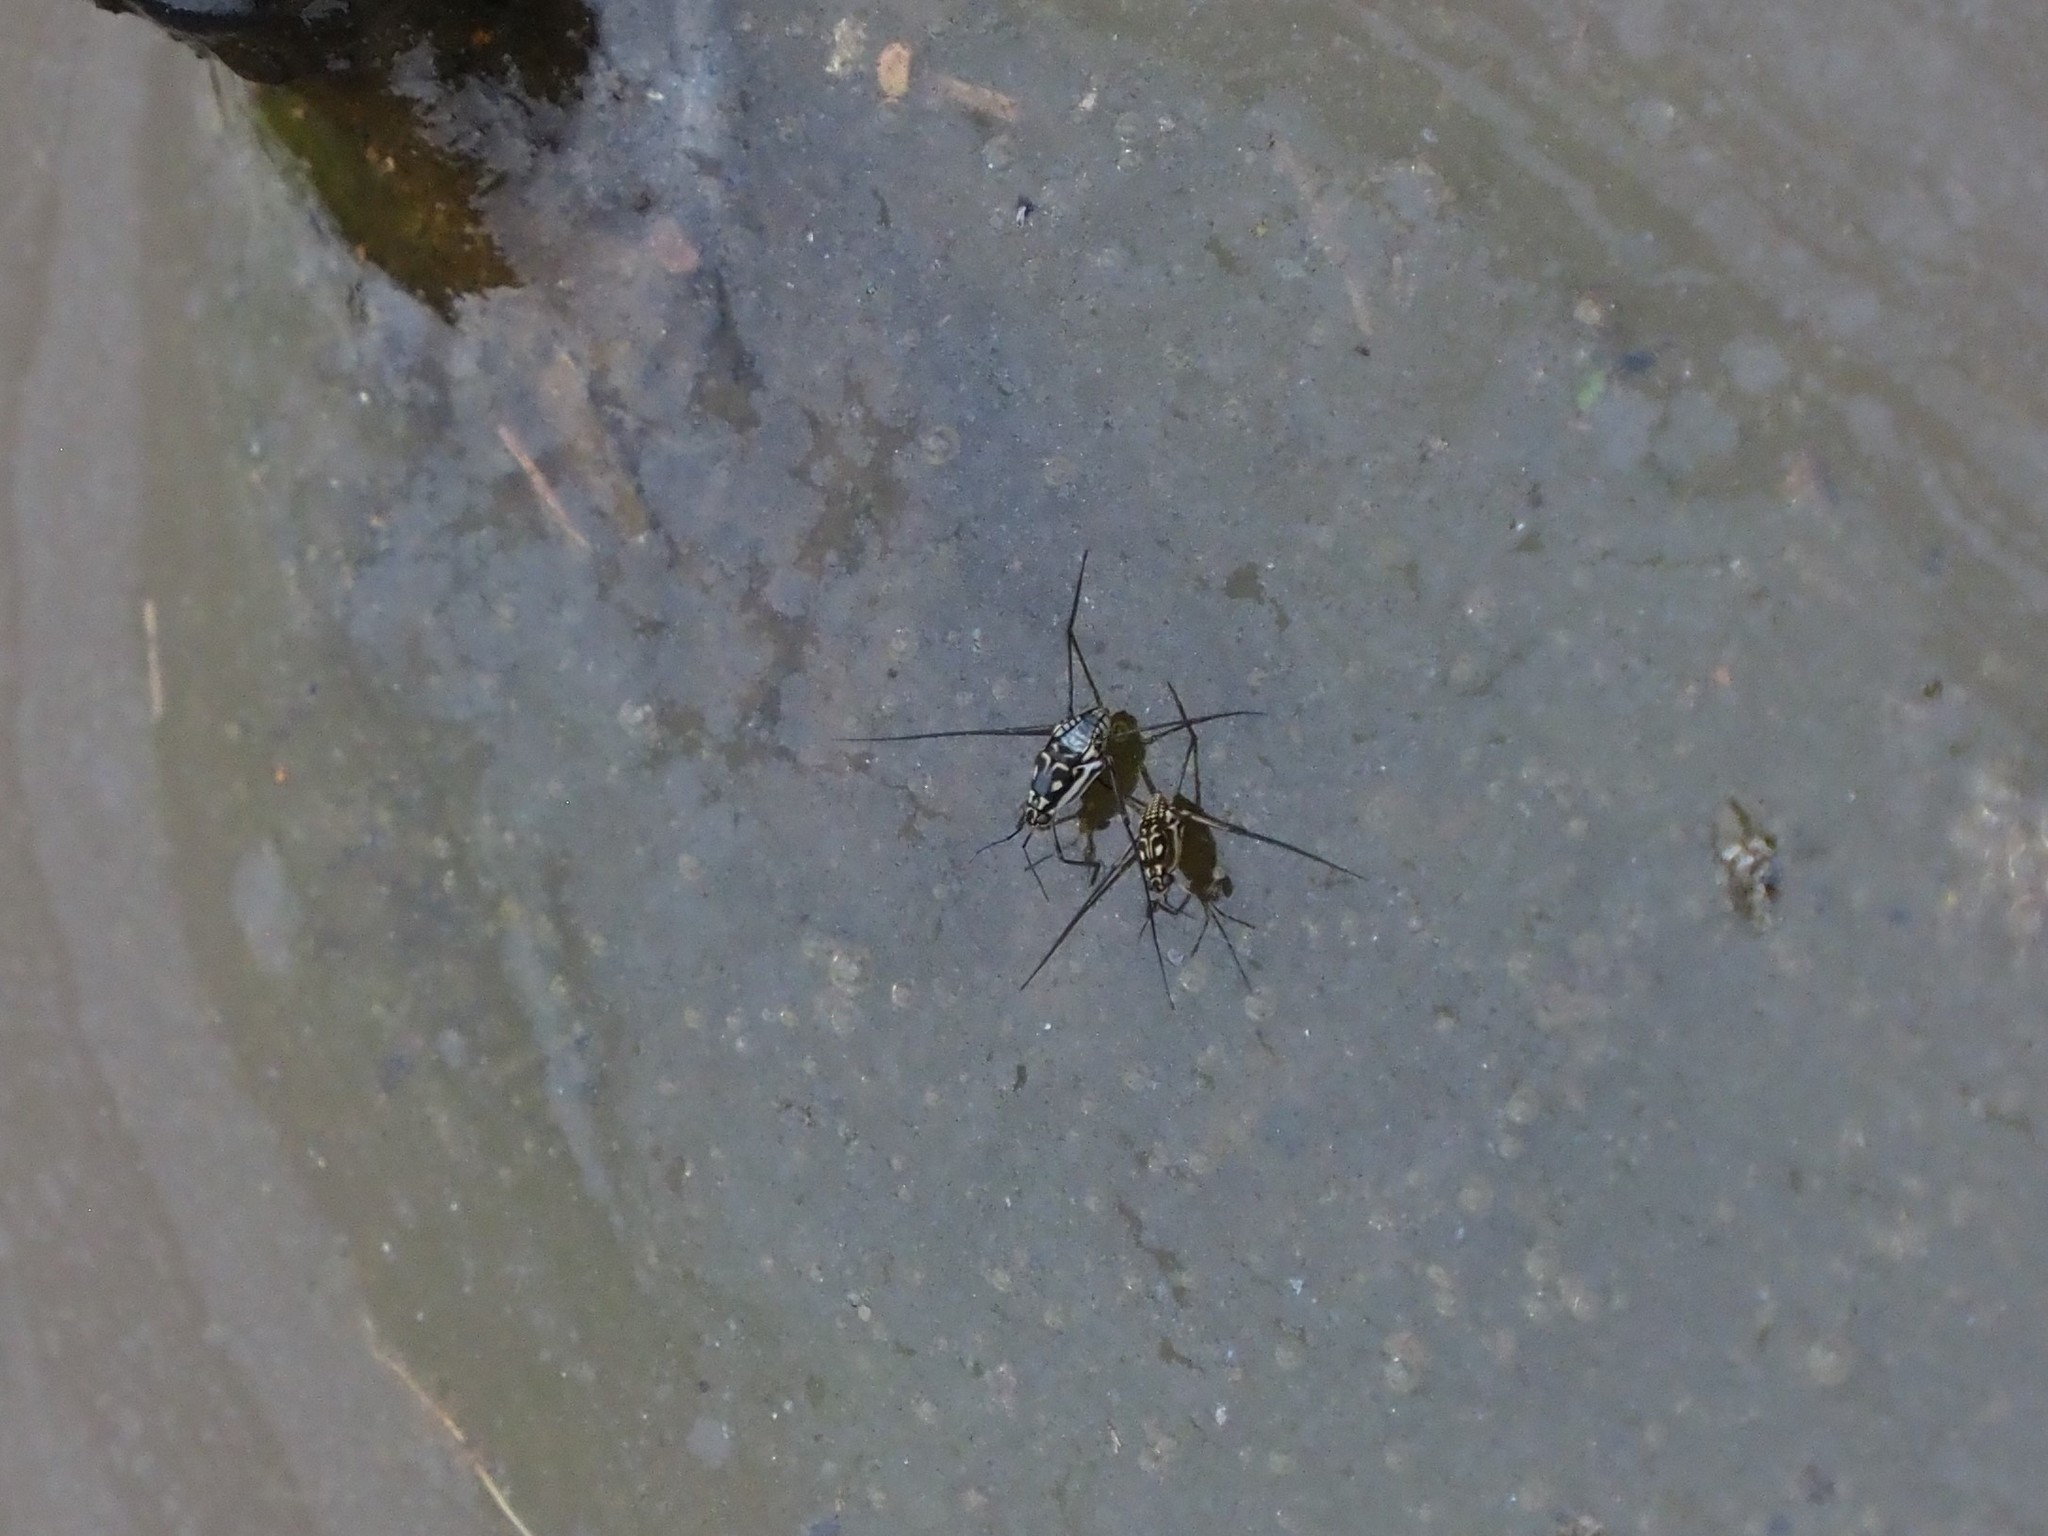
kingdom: Animalia
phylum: Arthropoda
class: Insecta
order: Hemiptera
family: Gerridae
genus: Trepobates
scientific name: Trepobates subnitidus
